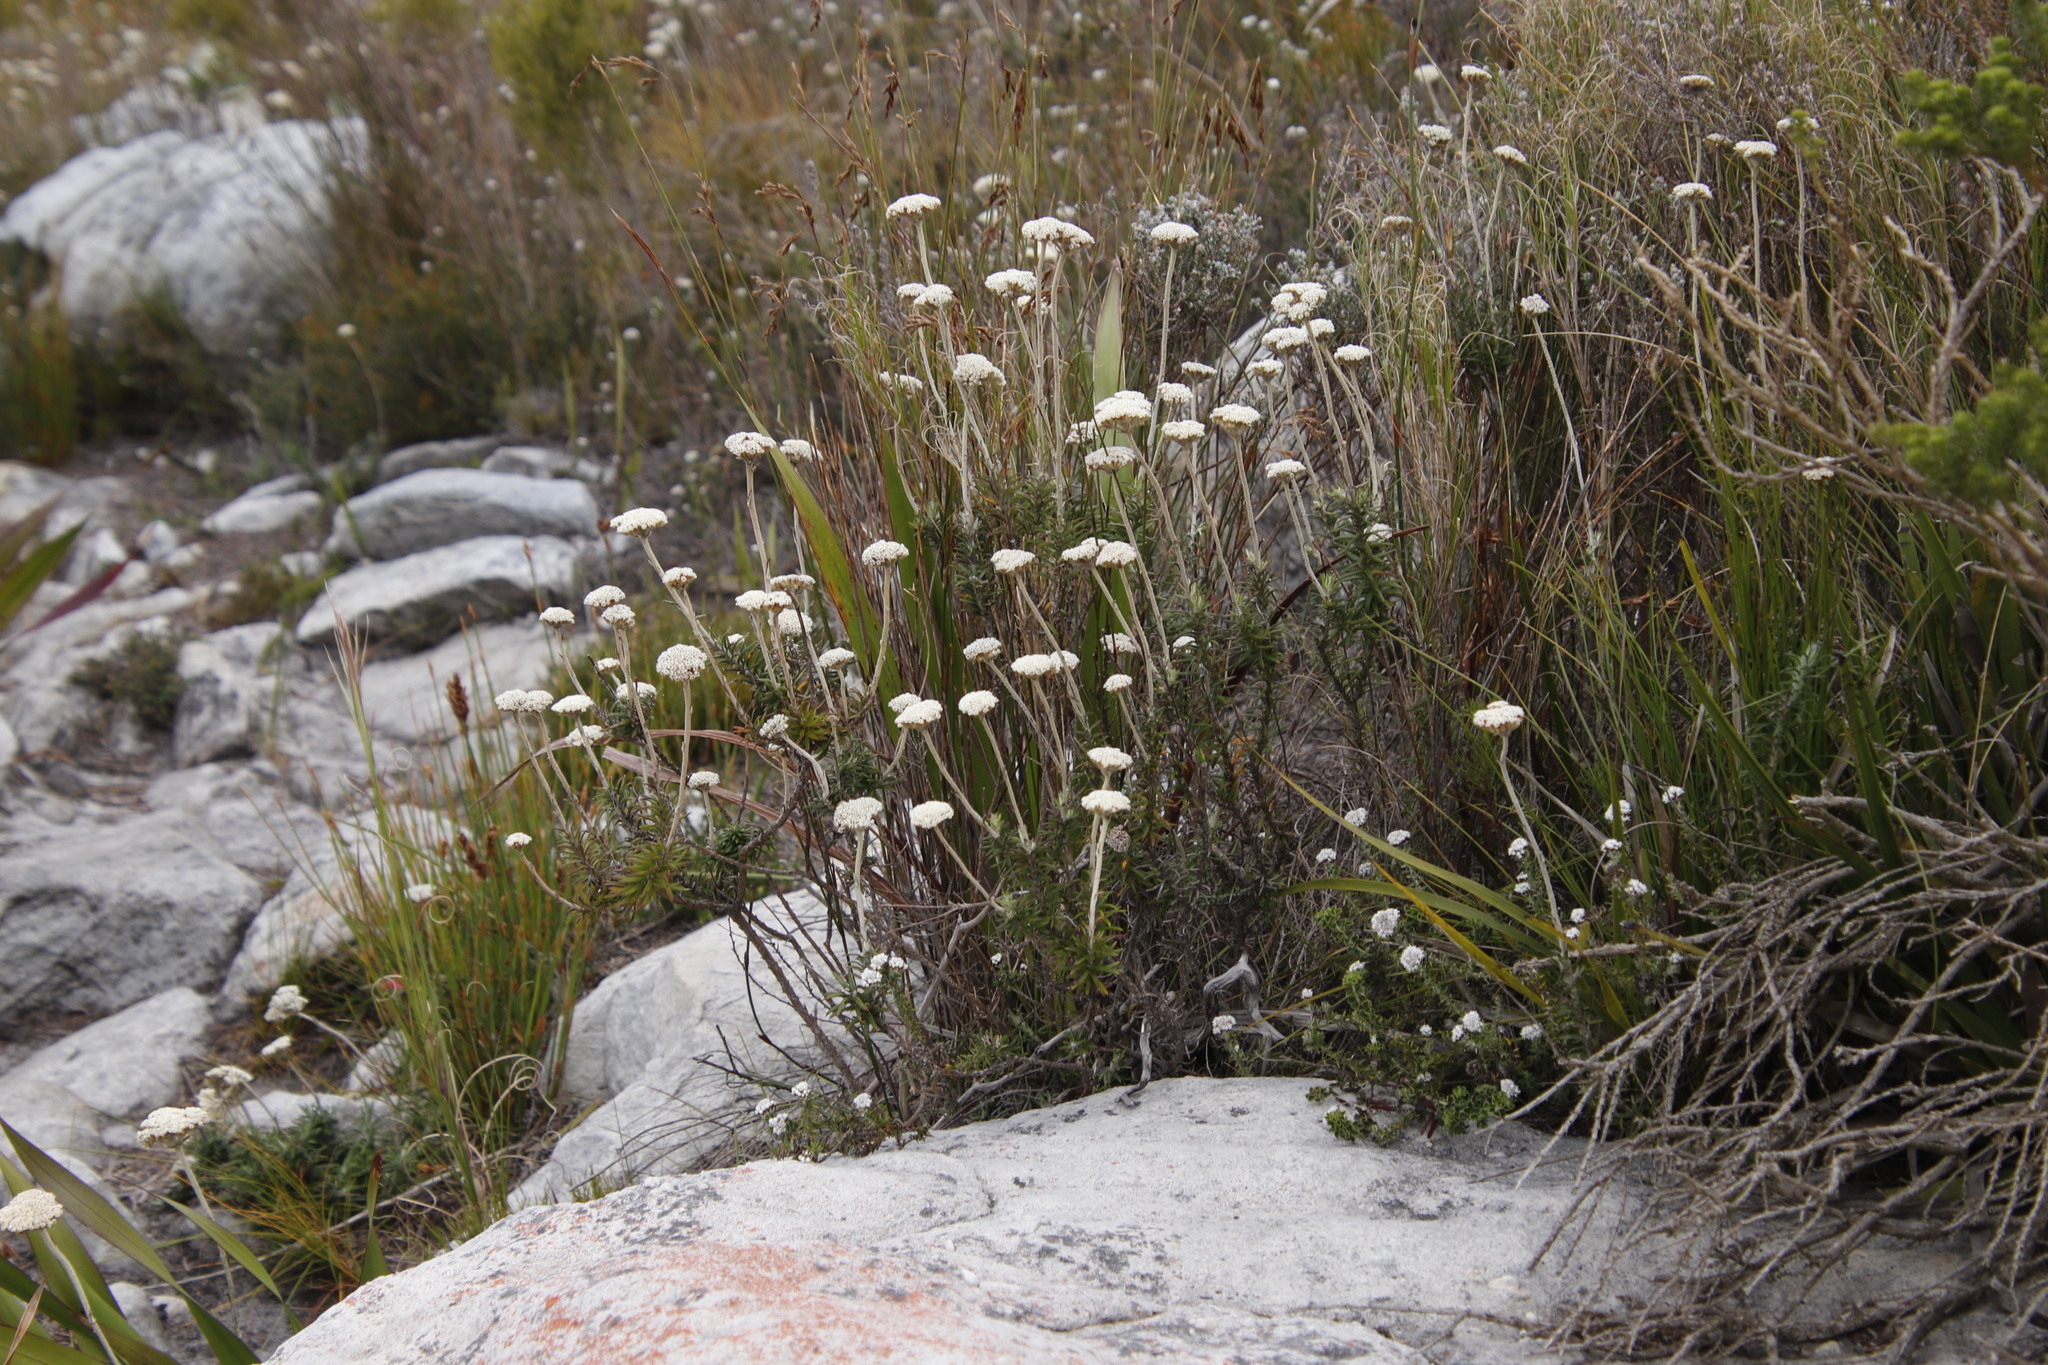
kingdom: Plantae
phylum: Tracheophyta
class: Magnoliopsida
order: Asterales
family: Asteraceae
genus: Anaxeton
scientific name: Anaxeton arborescens
